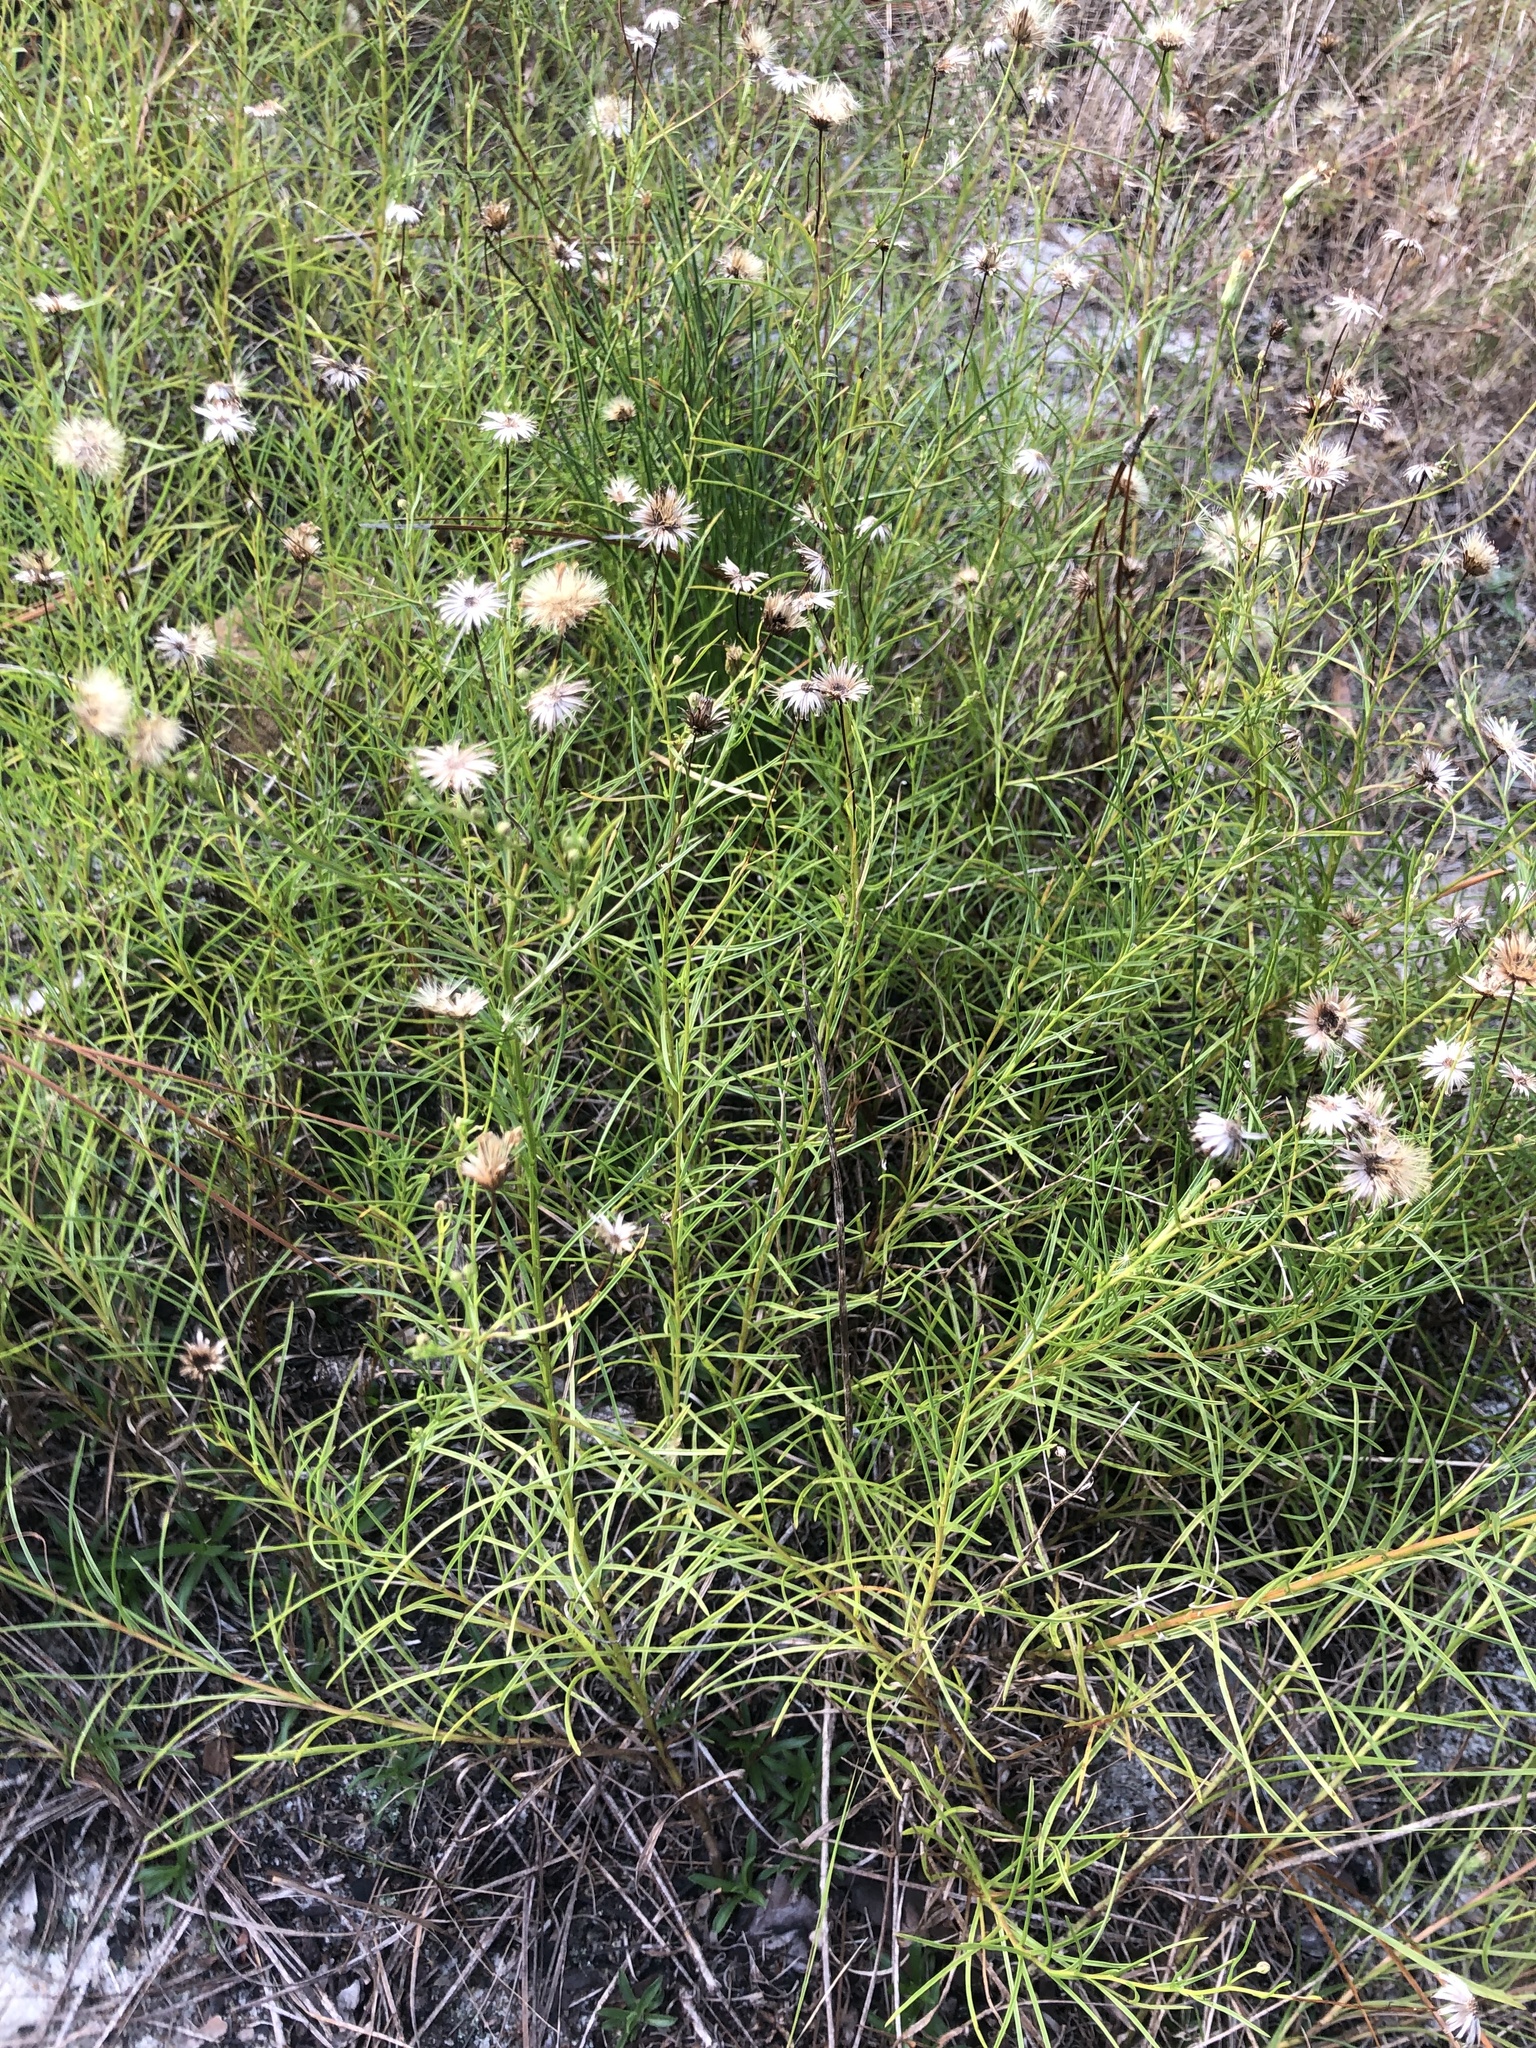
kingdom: Plantae
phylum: Tracheophyta
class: Magnoliopsida
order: Asterales
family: Asteraceae
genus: Pityopsis
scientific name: Pityopsis pinifolia
